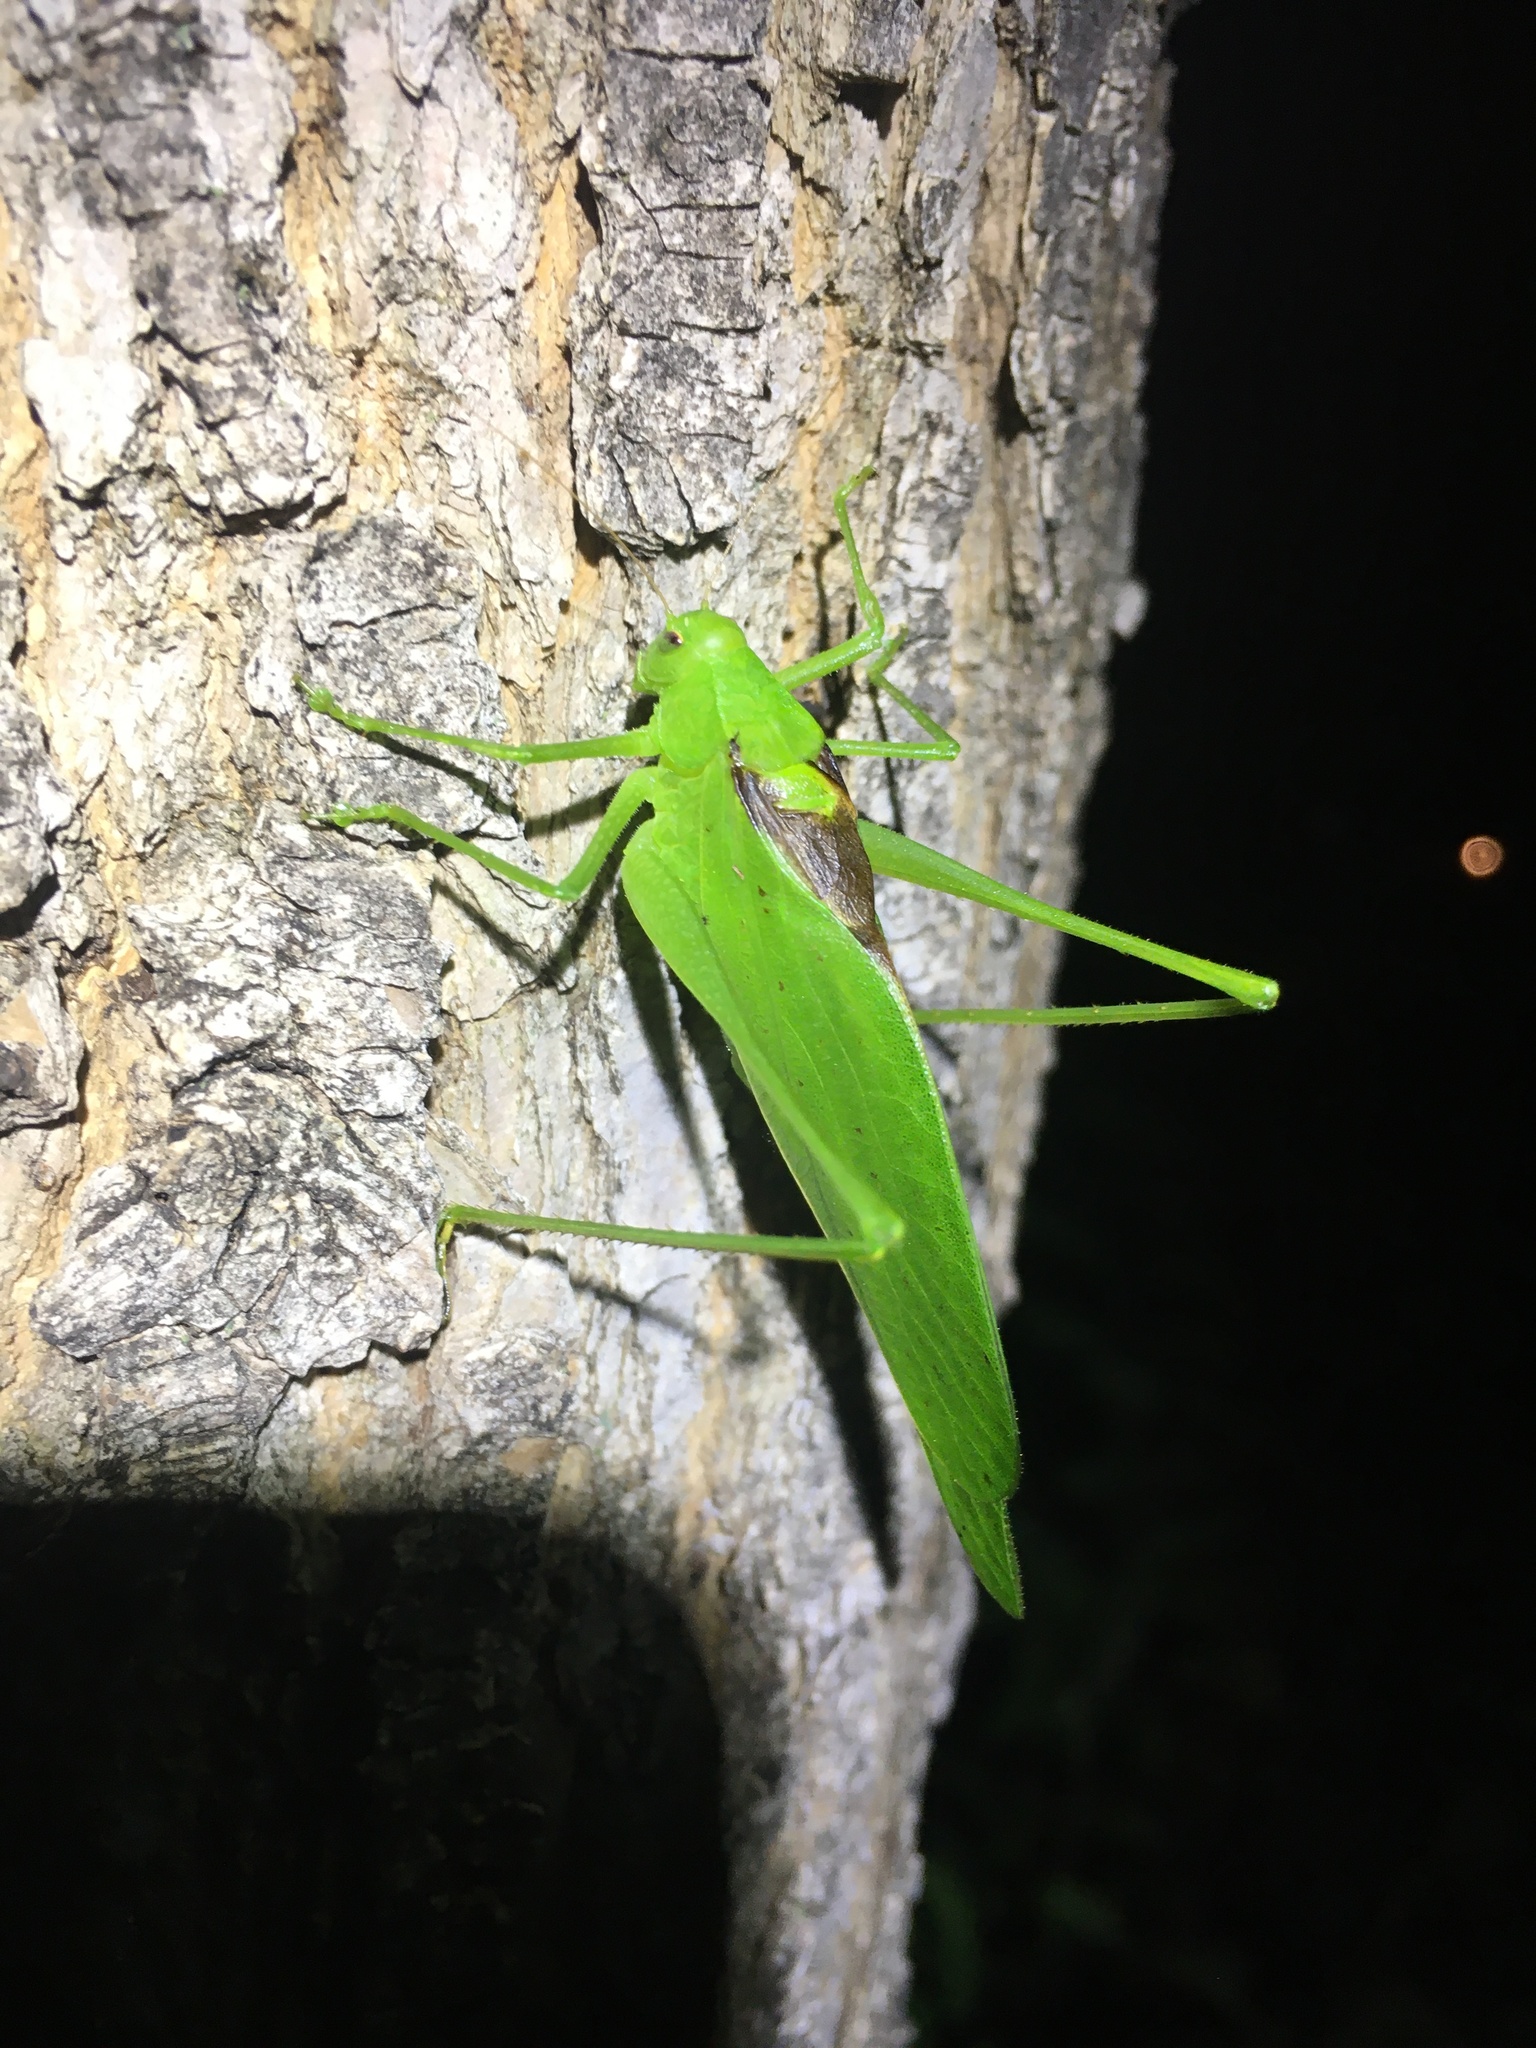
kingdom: Animalia
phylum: Arthropoda
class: Insecta
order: Orthoptera
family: Tettigoniidae
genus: Amblycorypha
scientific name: Amblycorypha oblongifolia
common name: Oblong-winged katydid
